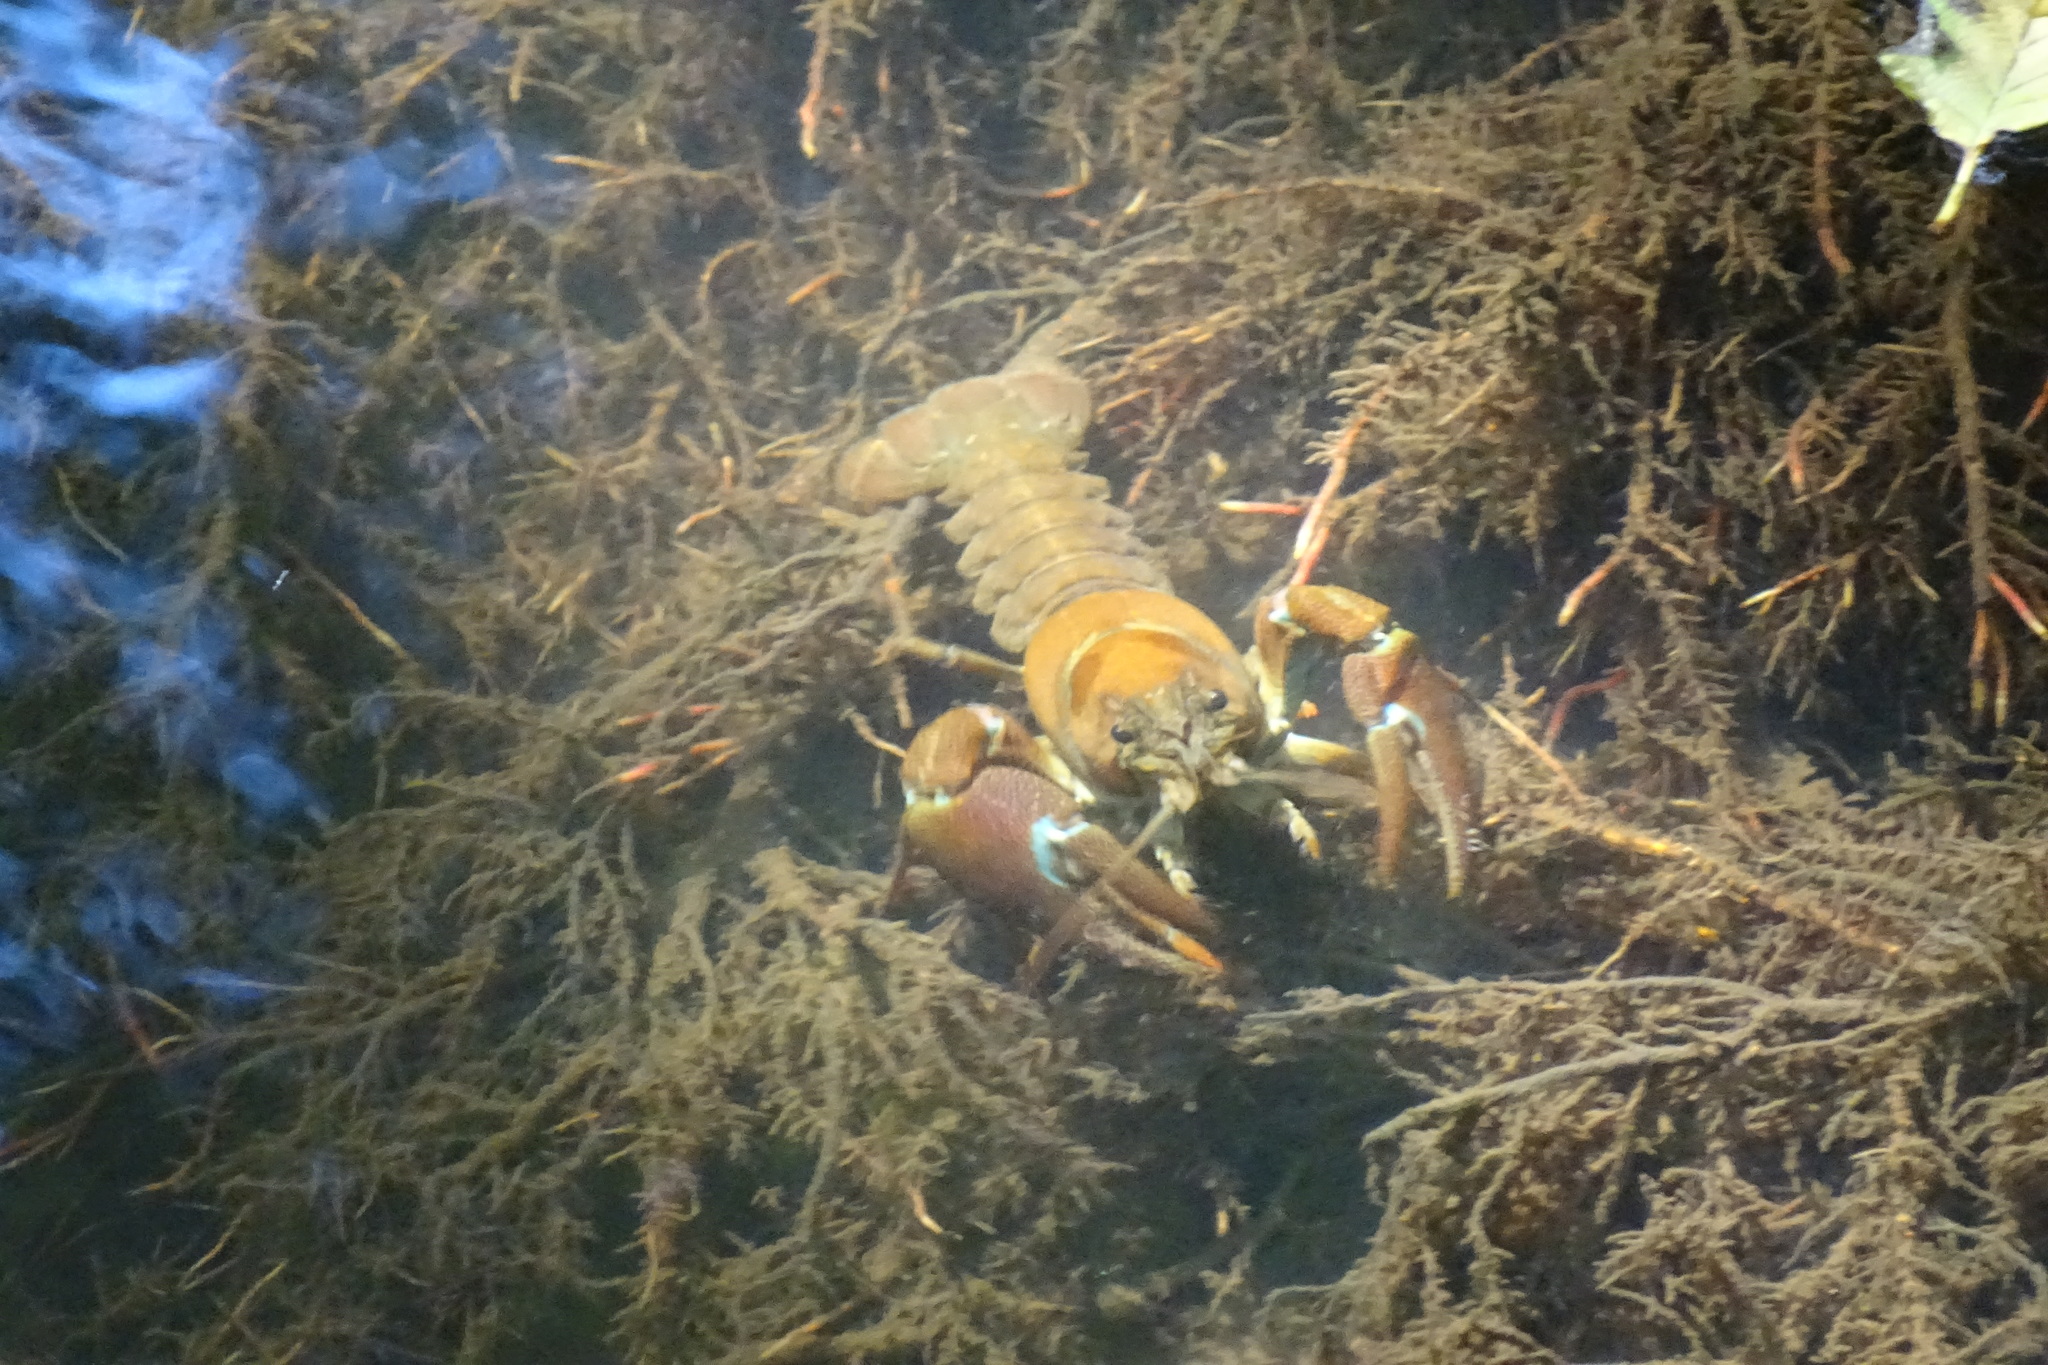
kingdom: Animalia
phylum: Arthropoda
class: Malacostraca
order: Decapoda
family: Astacidae
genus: Pacifastacus
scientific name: Pacifastacus leniusculus
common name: Signal crayfish
